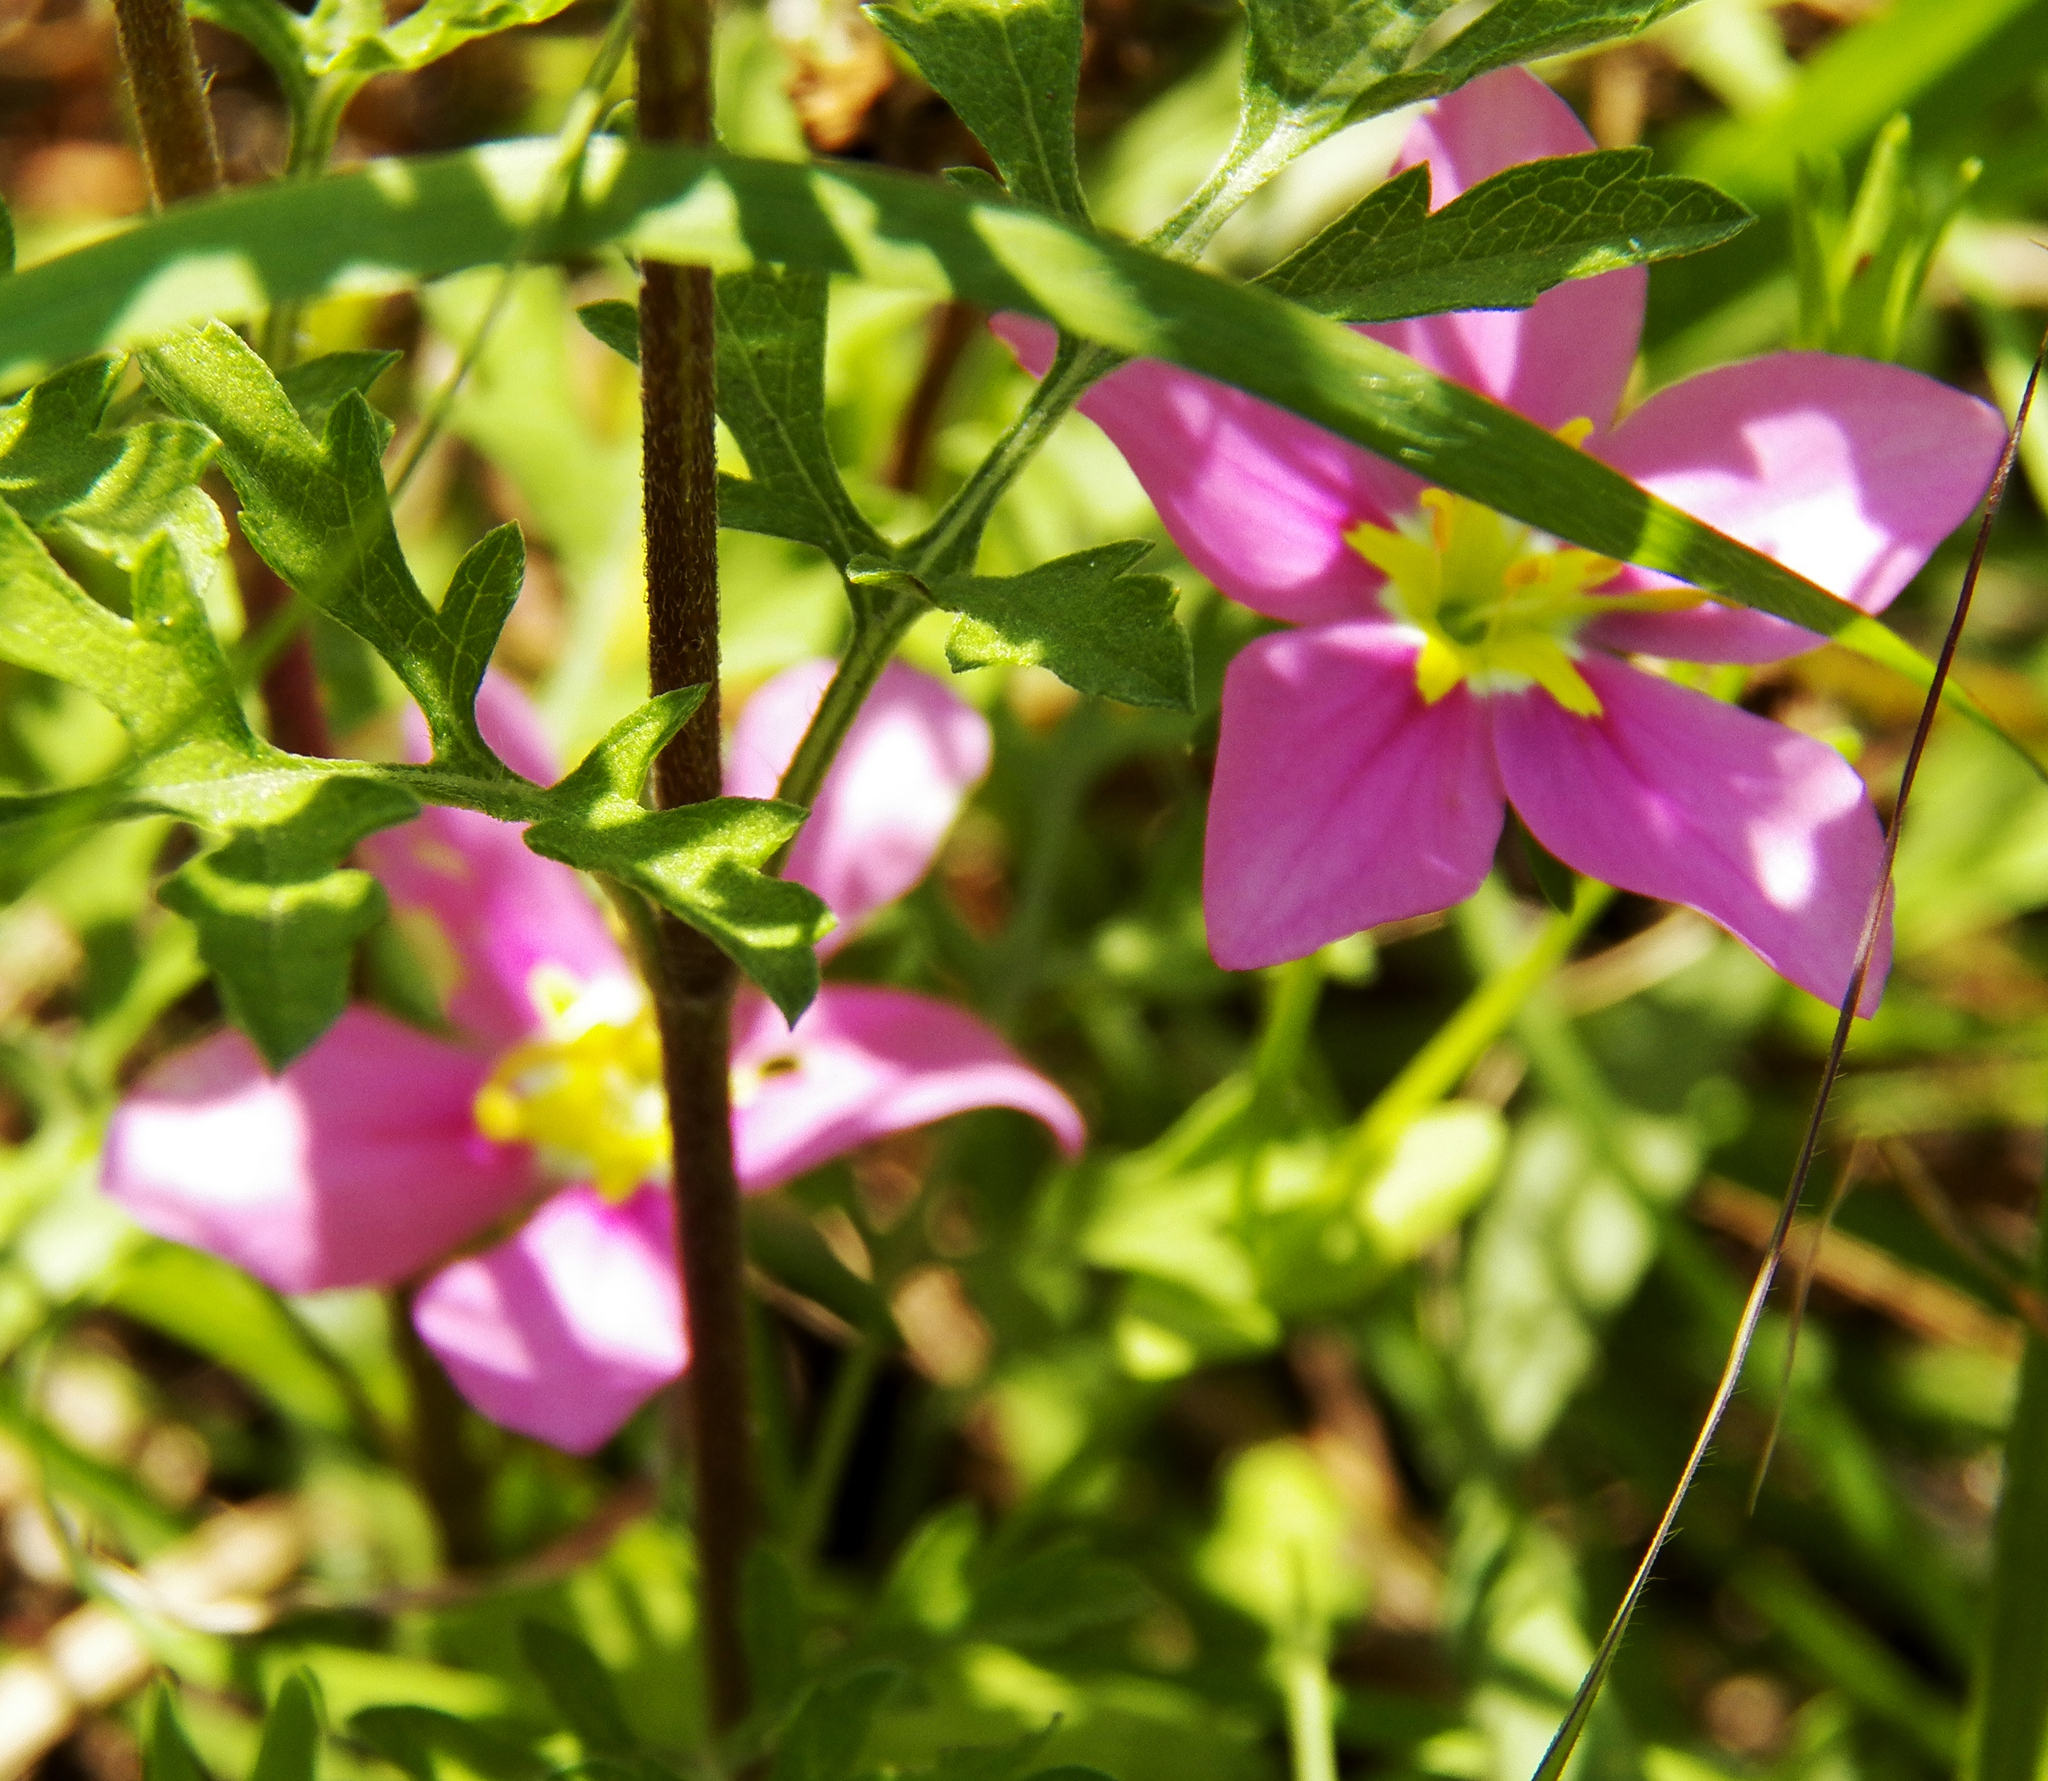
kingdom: Plantae
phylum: Tracheophyta
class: Magnoliopsida
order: Gentianales
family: Gentianaceae
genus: Sabatia
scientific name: Sabatia campestris
